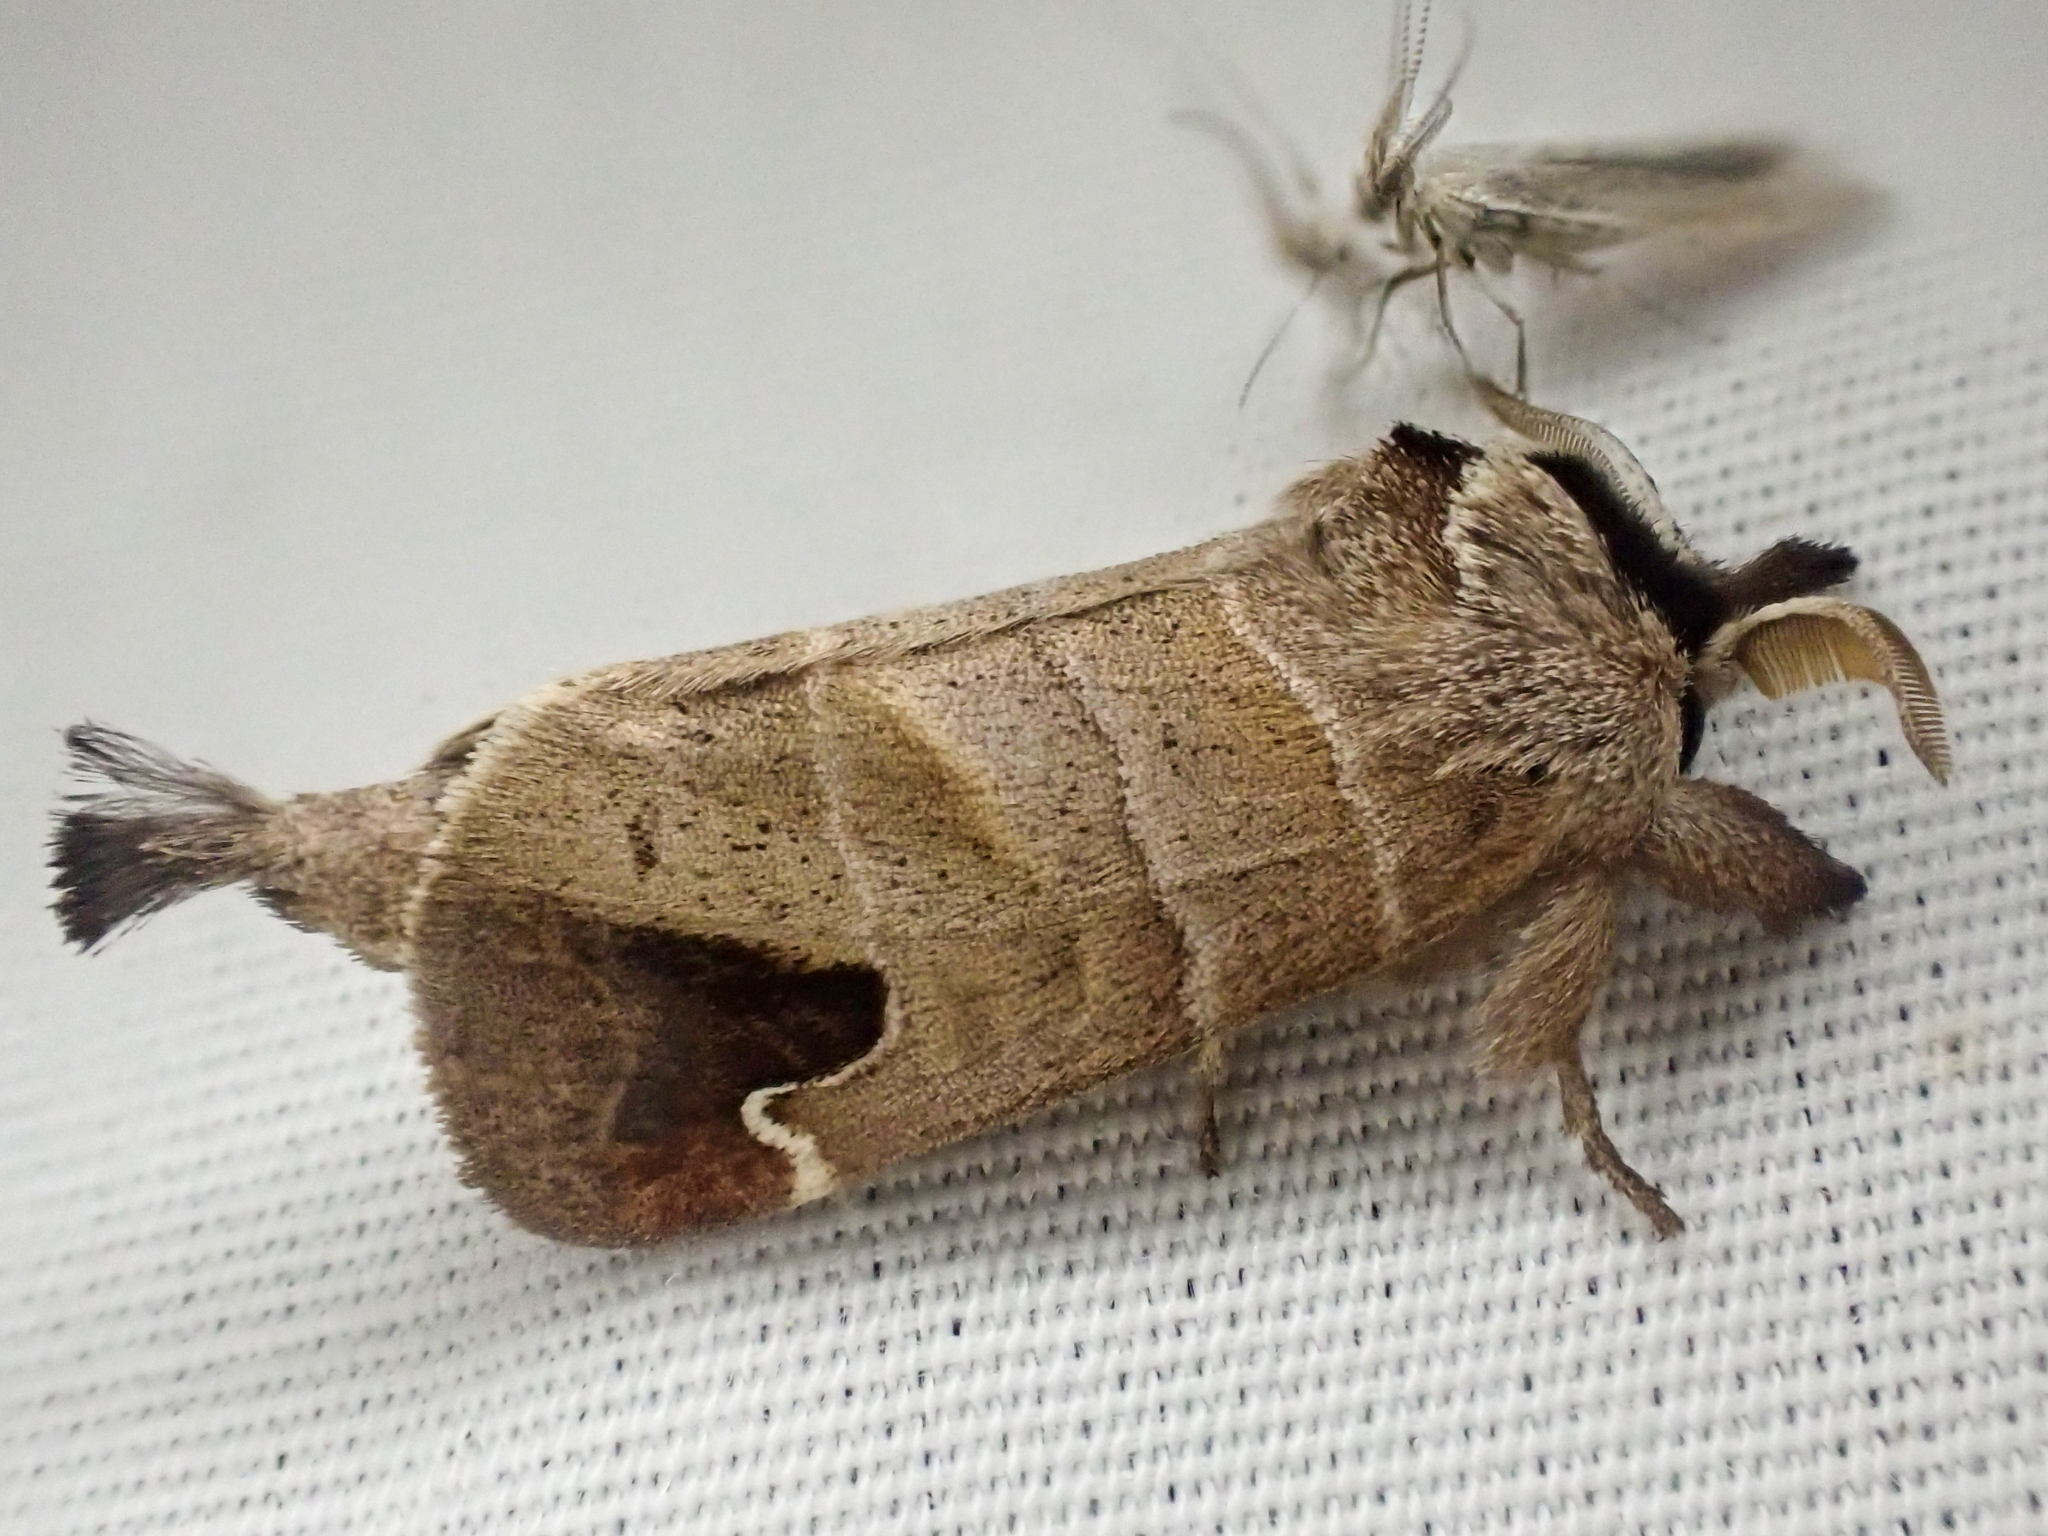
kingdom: Animalia
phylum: Arthropoda
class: Insecta
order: Lepidoptera
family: Notodontidae
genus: Clostera
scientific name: Clostera albosigma
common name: Sigmoid prominent
